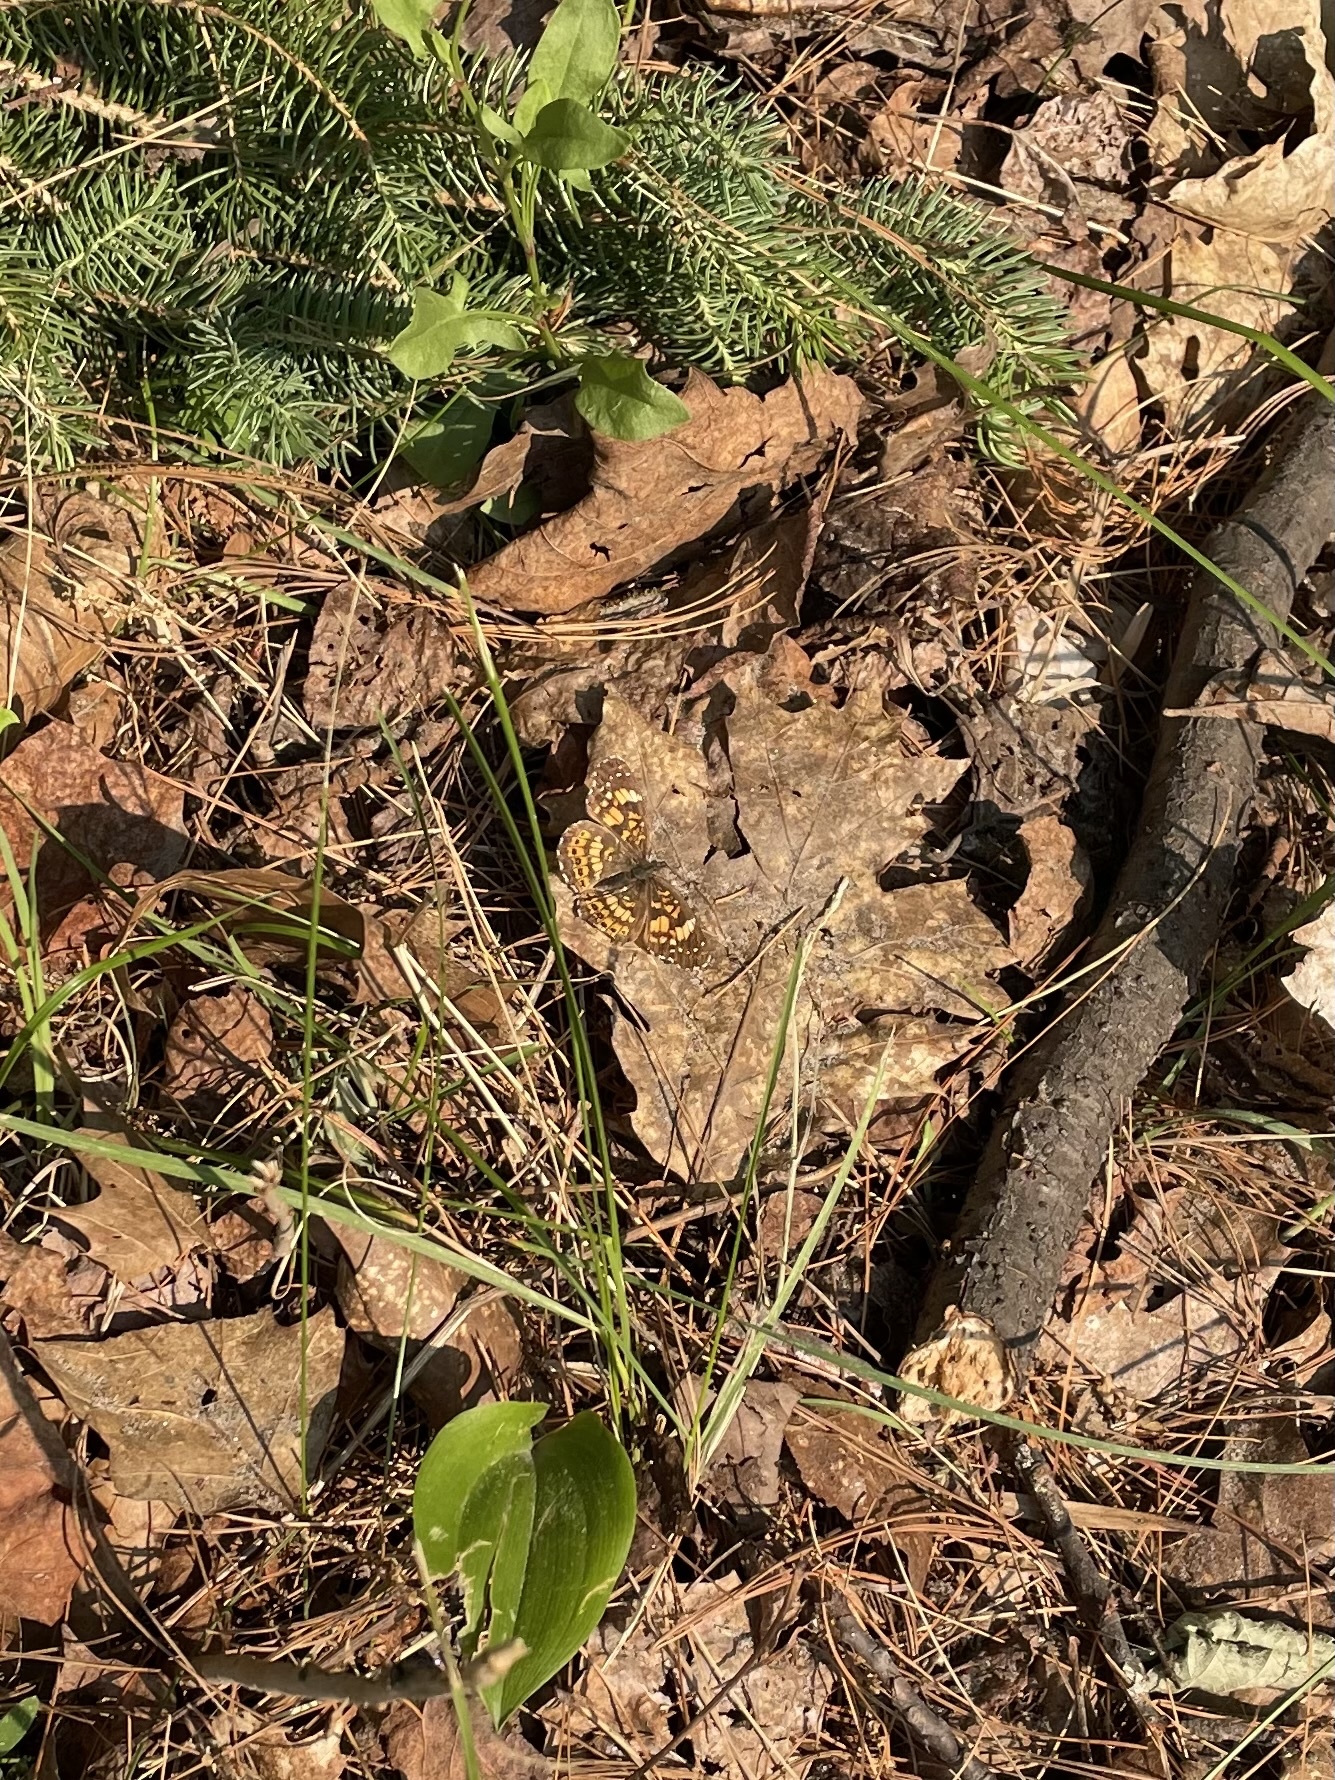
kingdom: Animalia
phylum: Arthropoda
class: Insecta
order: Lepidoptera
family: Nymphalidae
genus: Chlosyne
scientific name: Chlosyne nycteis
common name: Silvery checkerspot
